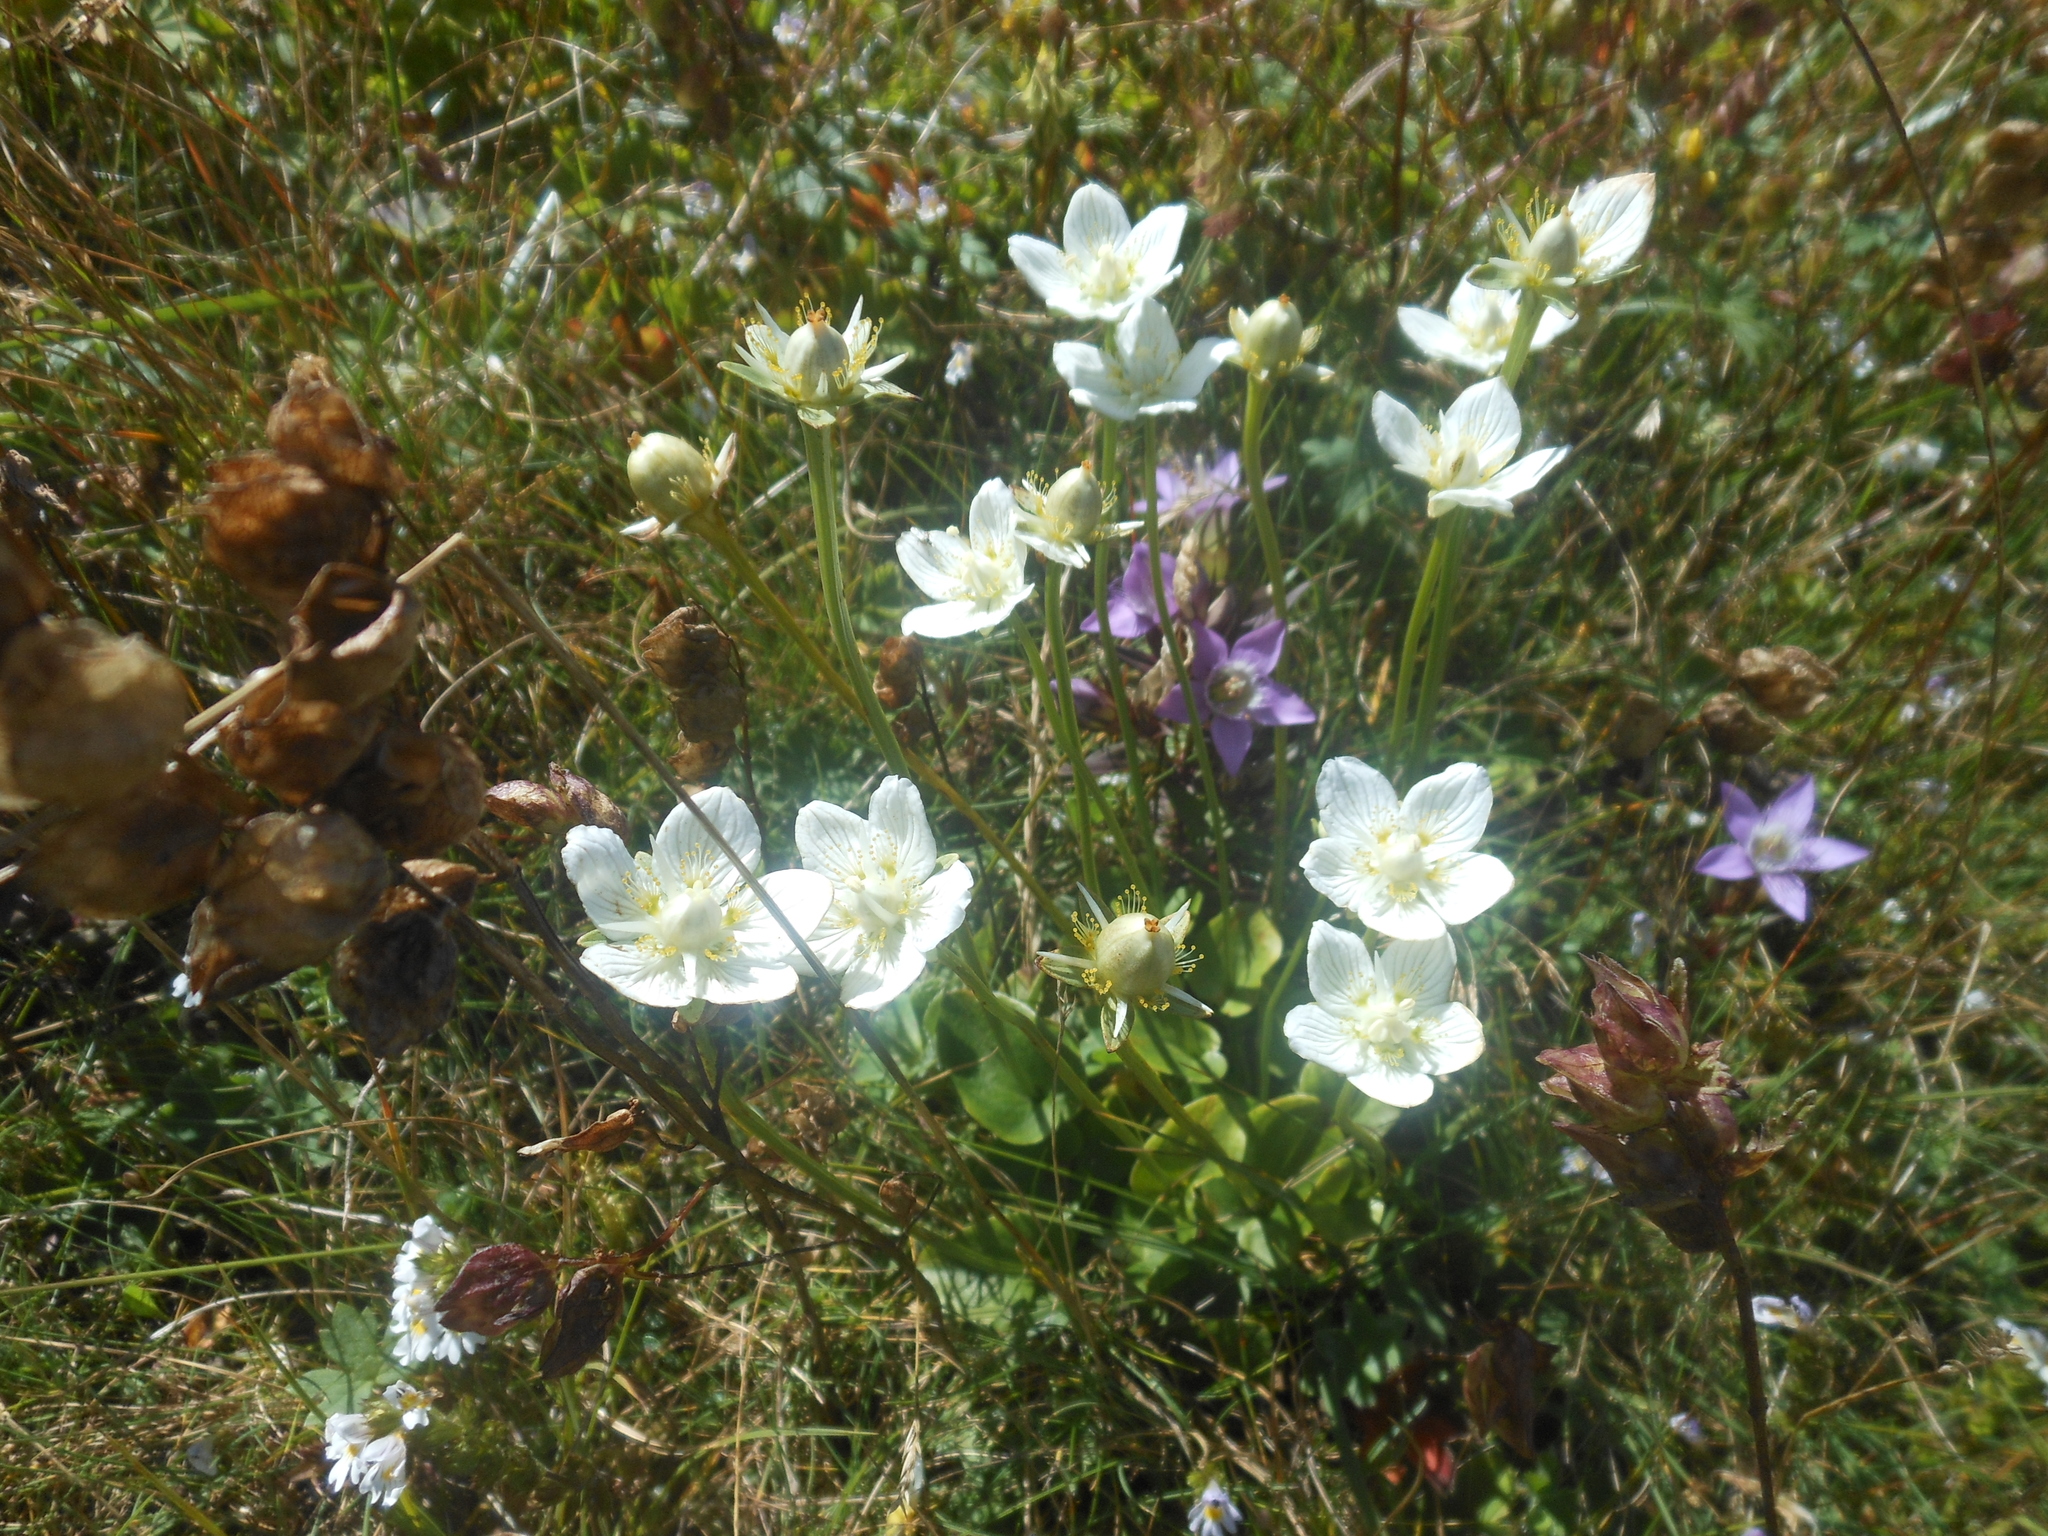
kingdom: Plantae
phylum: Tracheophyta
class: Magnoliopsida
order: Celastrales
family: Parnassiaceae
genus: Parnassia
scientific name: Parnassia palustris
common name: Grass-of-parnassus
